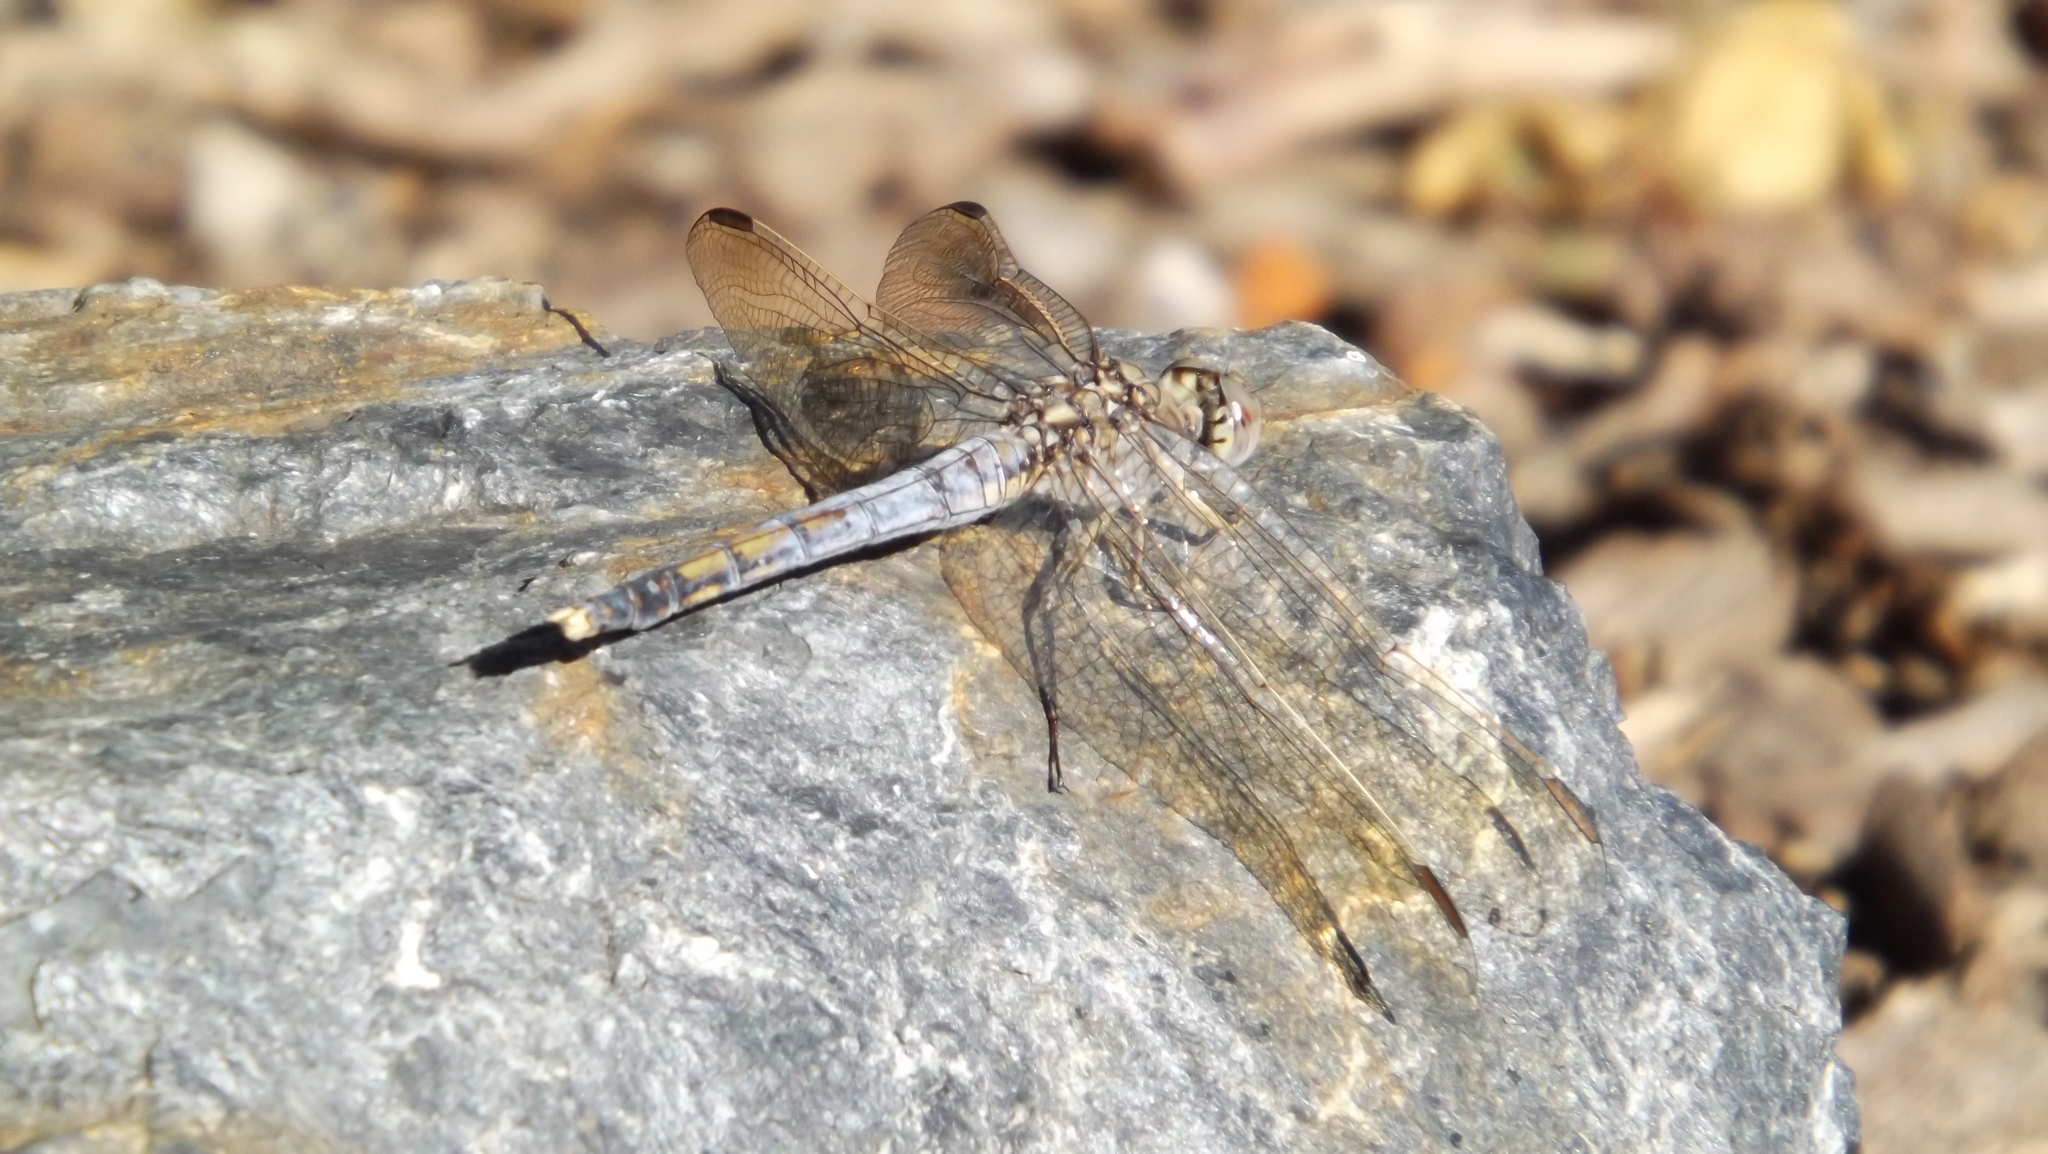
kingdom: Animalia
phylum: Arthropoda
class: Insecta
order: Odonata
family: Libellulidae
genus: Orthetrum
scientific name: Orthetrum caledonicum
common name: Blue skimmer
